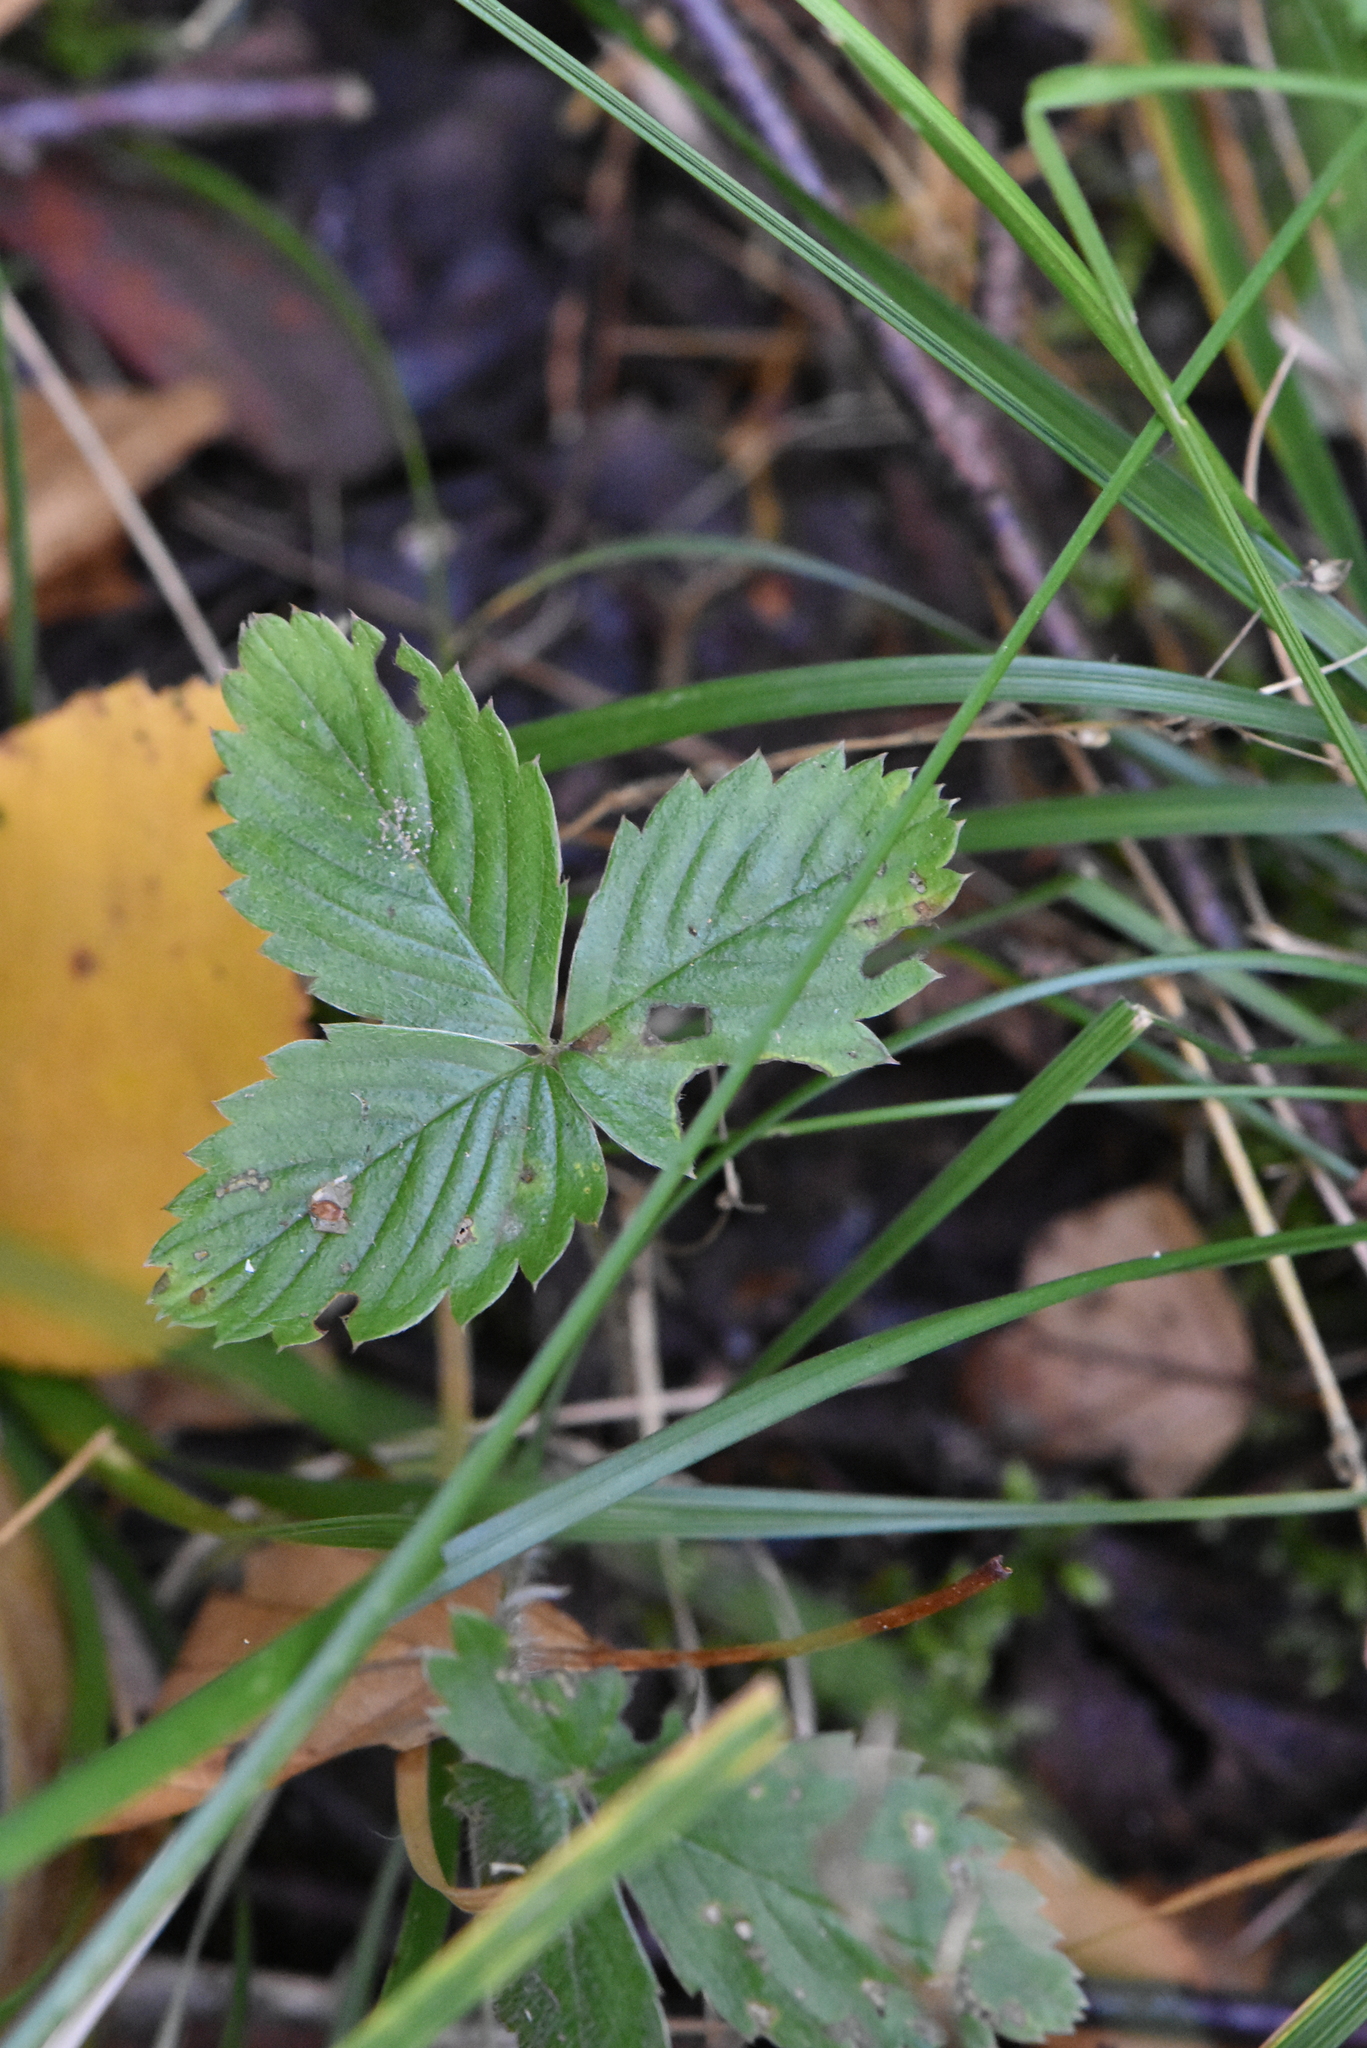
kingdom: Plantae
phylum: Tracheophyta
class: Magnoliopsida
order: Rosales
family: Rosaceae
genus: Fragaria
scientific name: Fragaria vesca
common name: Wild strawberry
